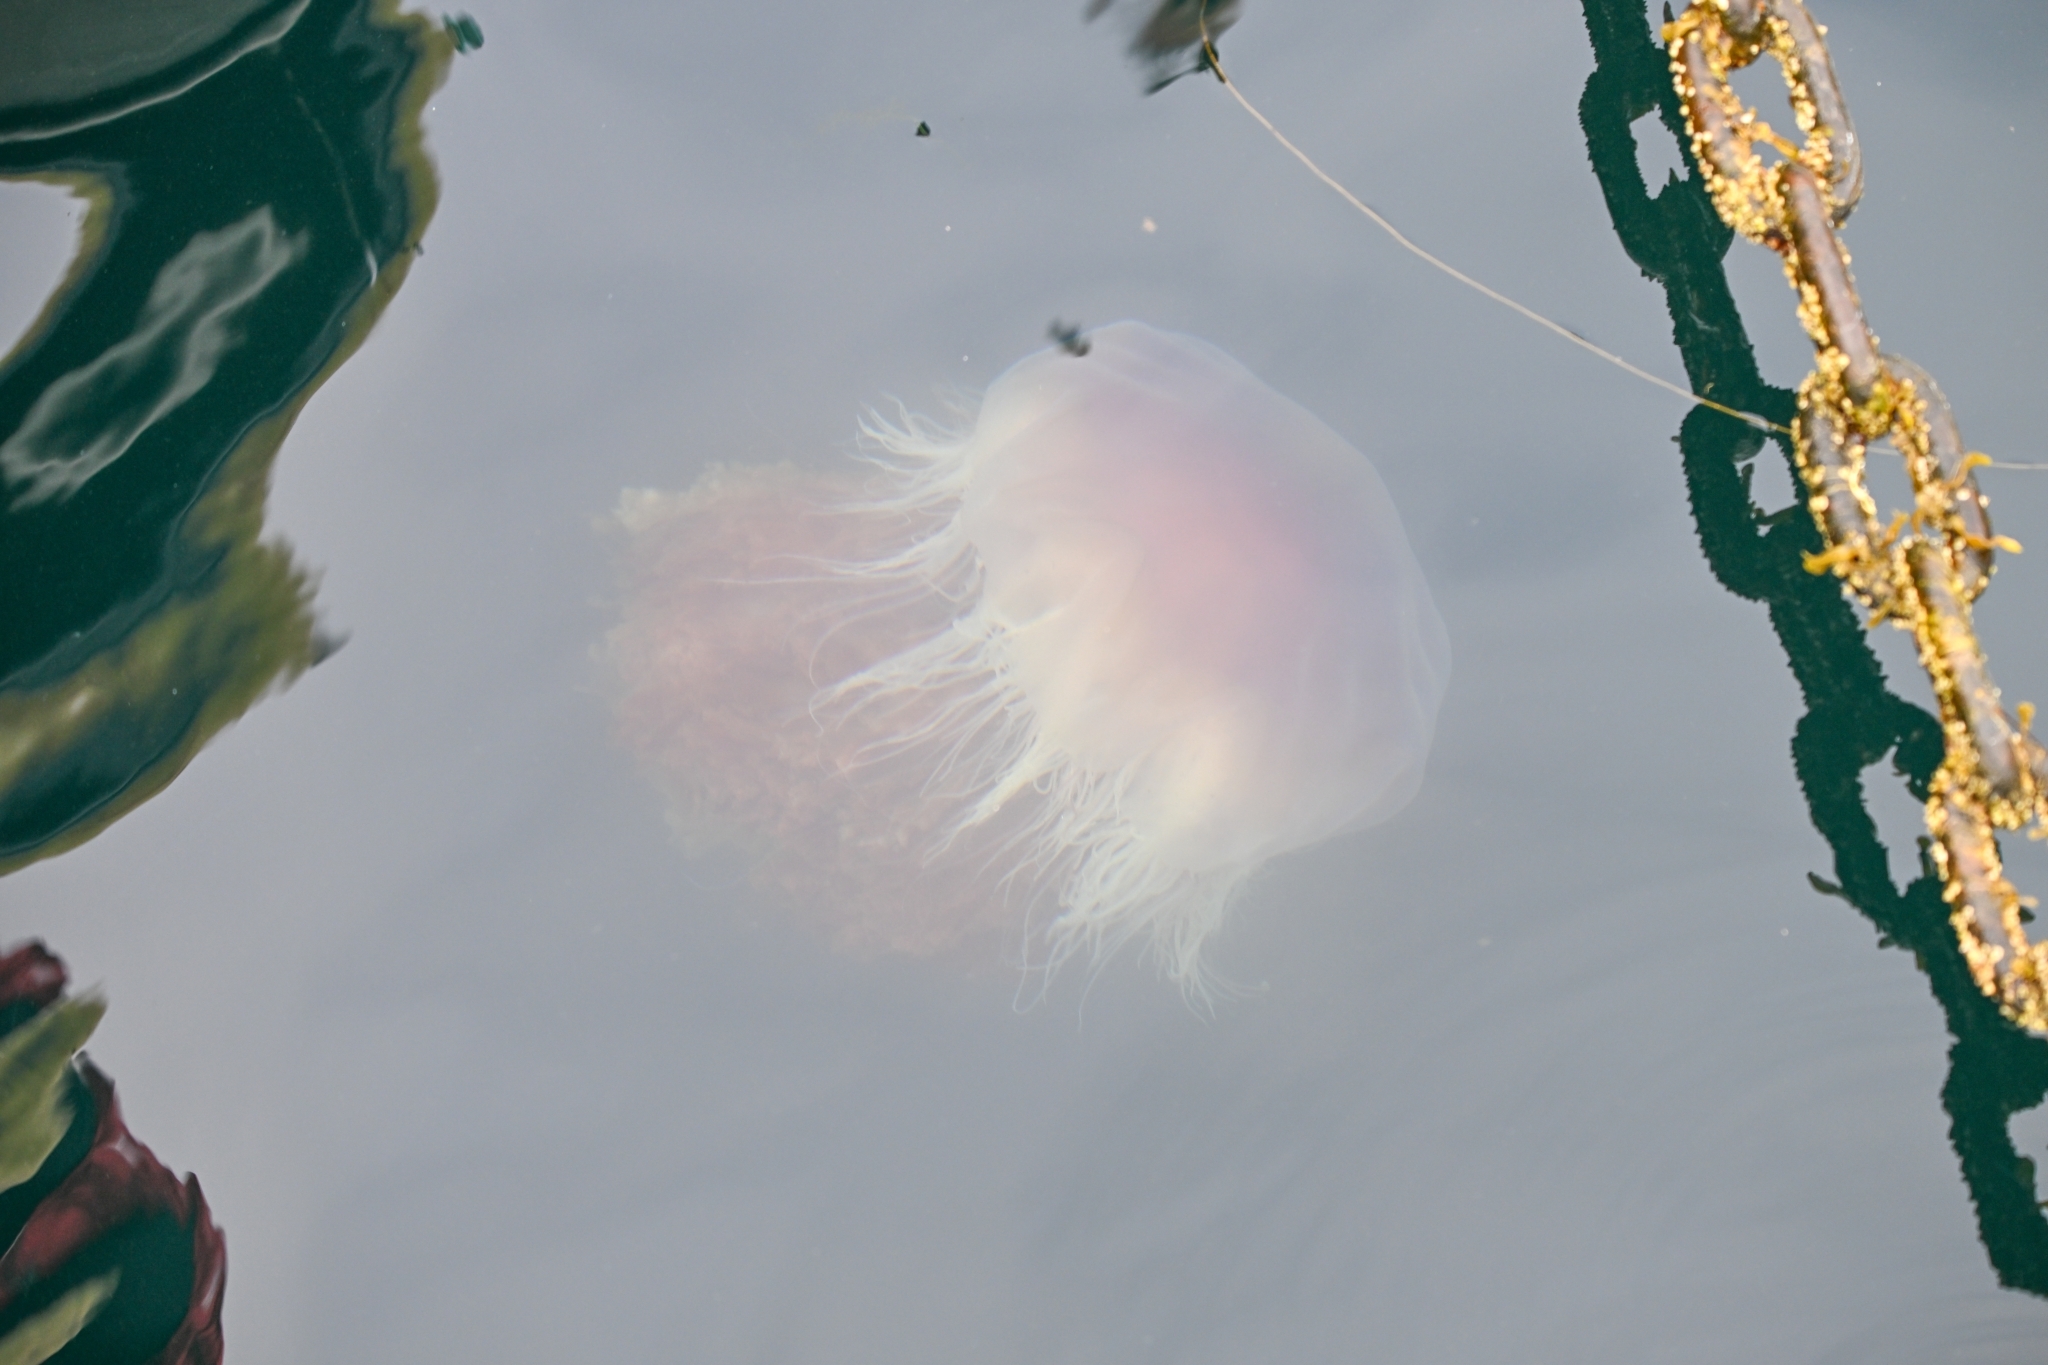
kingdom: Animalia
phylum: Cnidaria
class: Scyphozoa
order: Semaeostomeae
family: Cyaneidae
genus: Cyanea
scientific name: Cyanea capillata
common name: Lion's mane jellyfish
